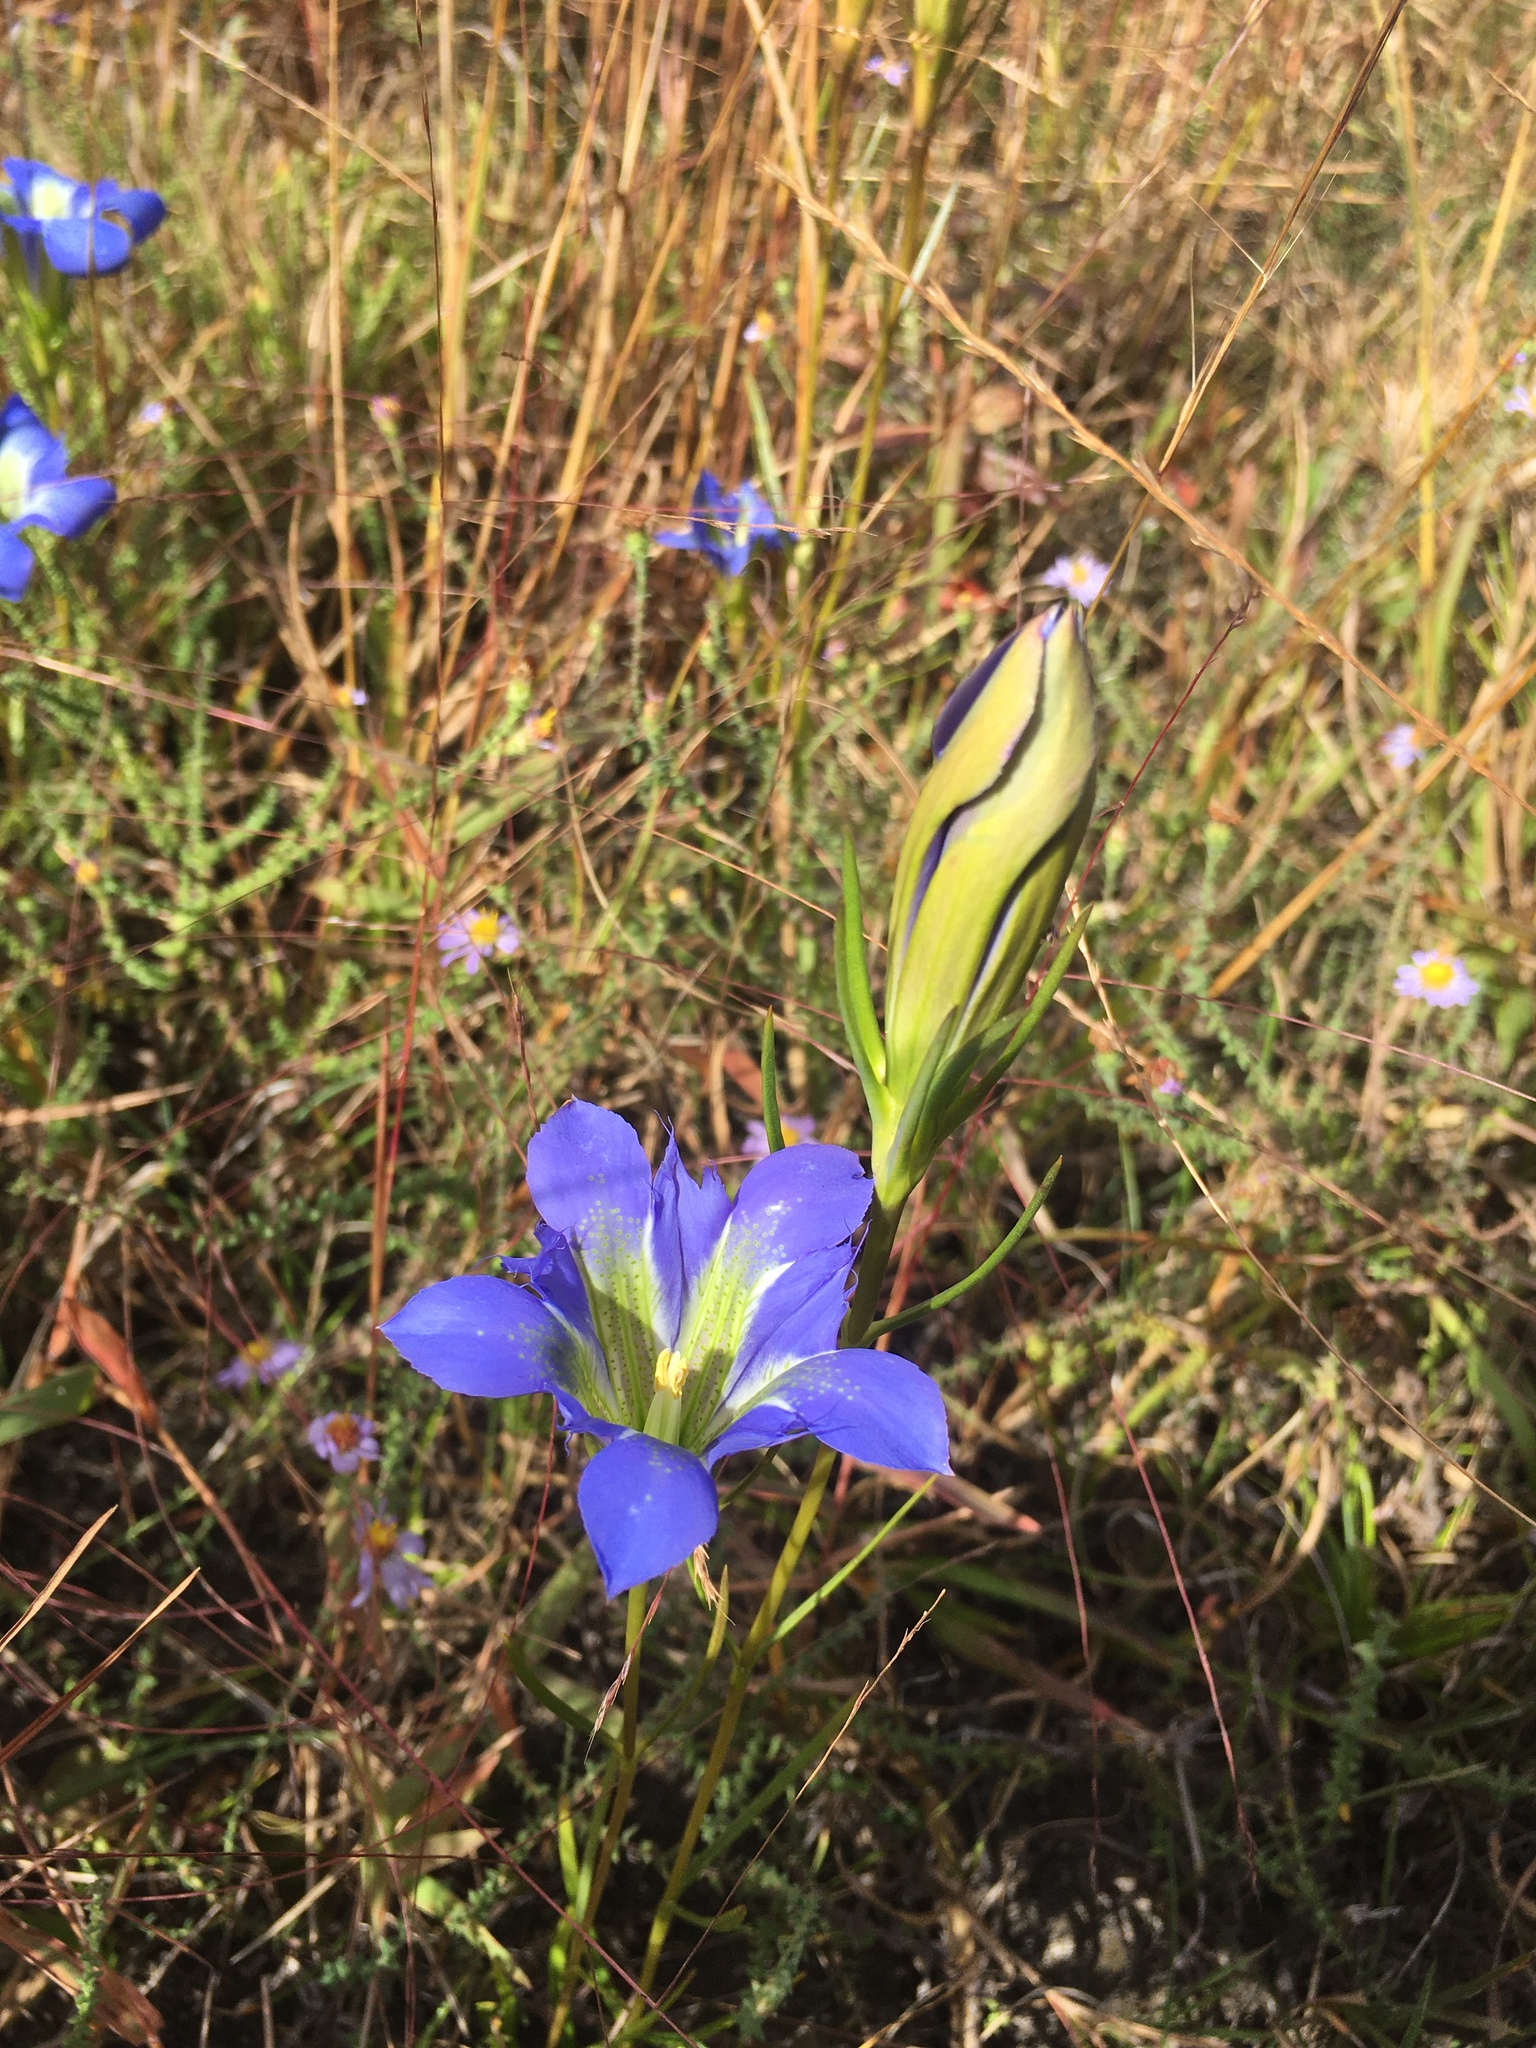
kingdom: Plantae
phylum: Tracheophyta
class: Magnoliopsida
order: Gentianales
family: Gentianaceae
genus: Gentiana
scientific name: Gentiana autumnalis
